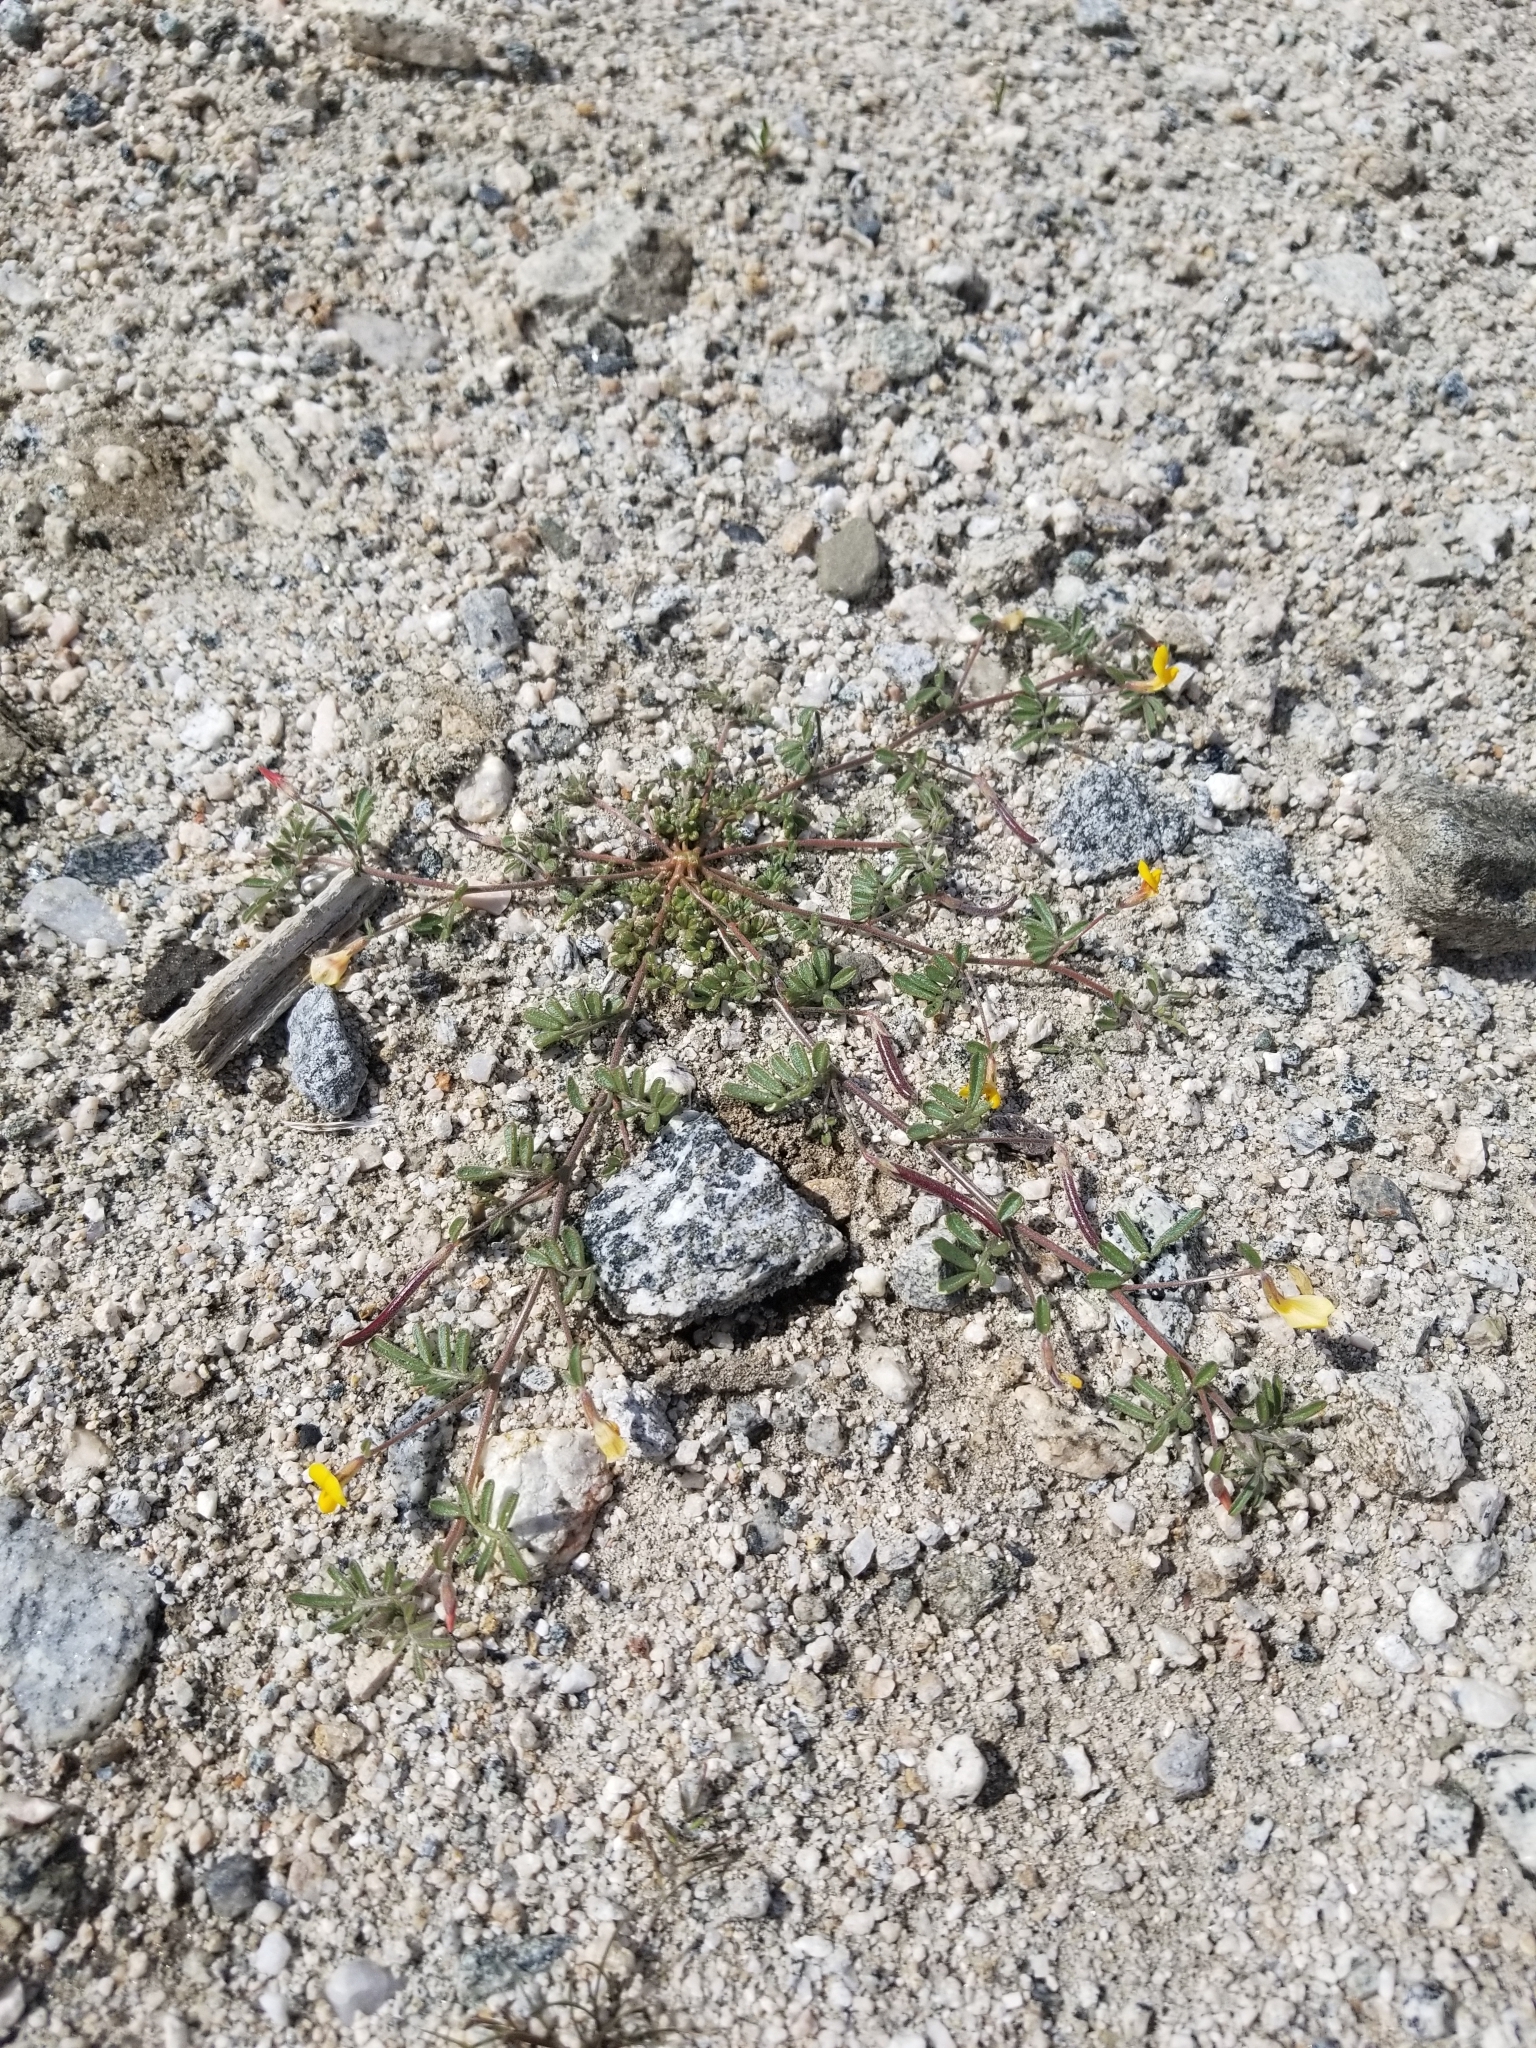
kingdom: Plantae
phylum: Tracheophyta
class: Magnoliopsida
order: Fabales
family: Fabaceae
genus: Acmispon
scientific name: Acmispon strigosus
